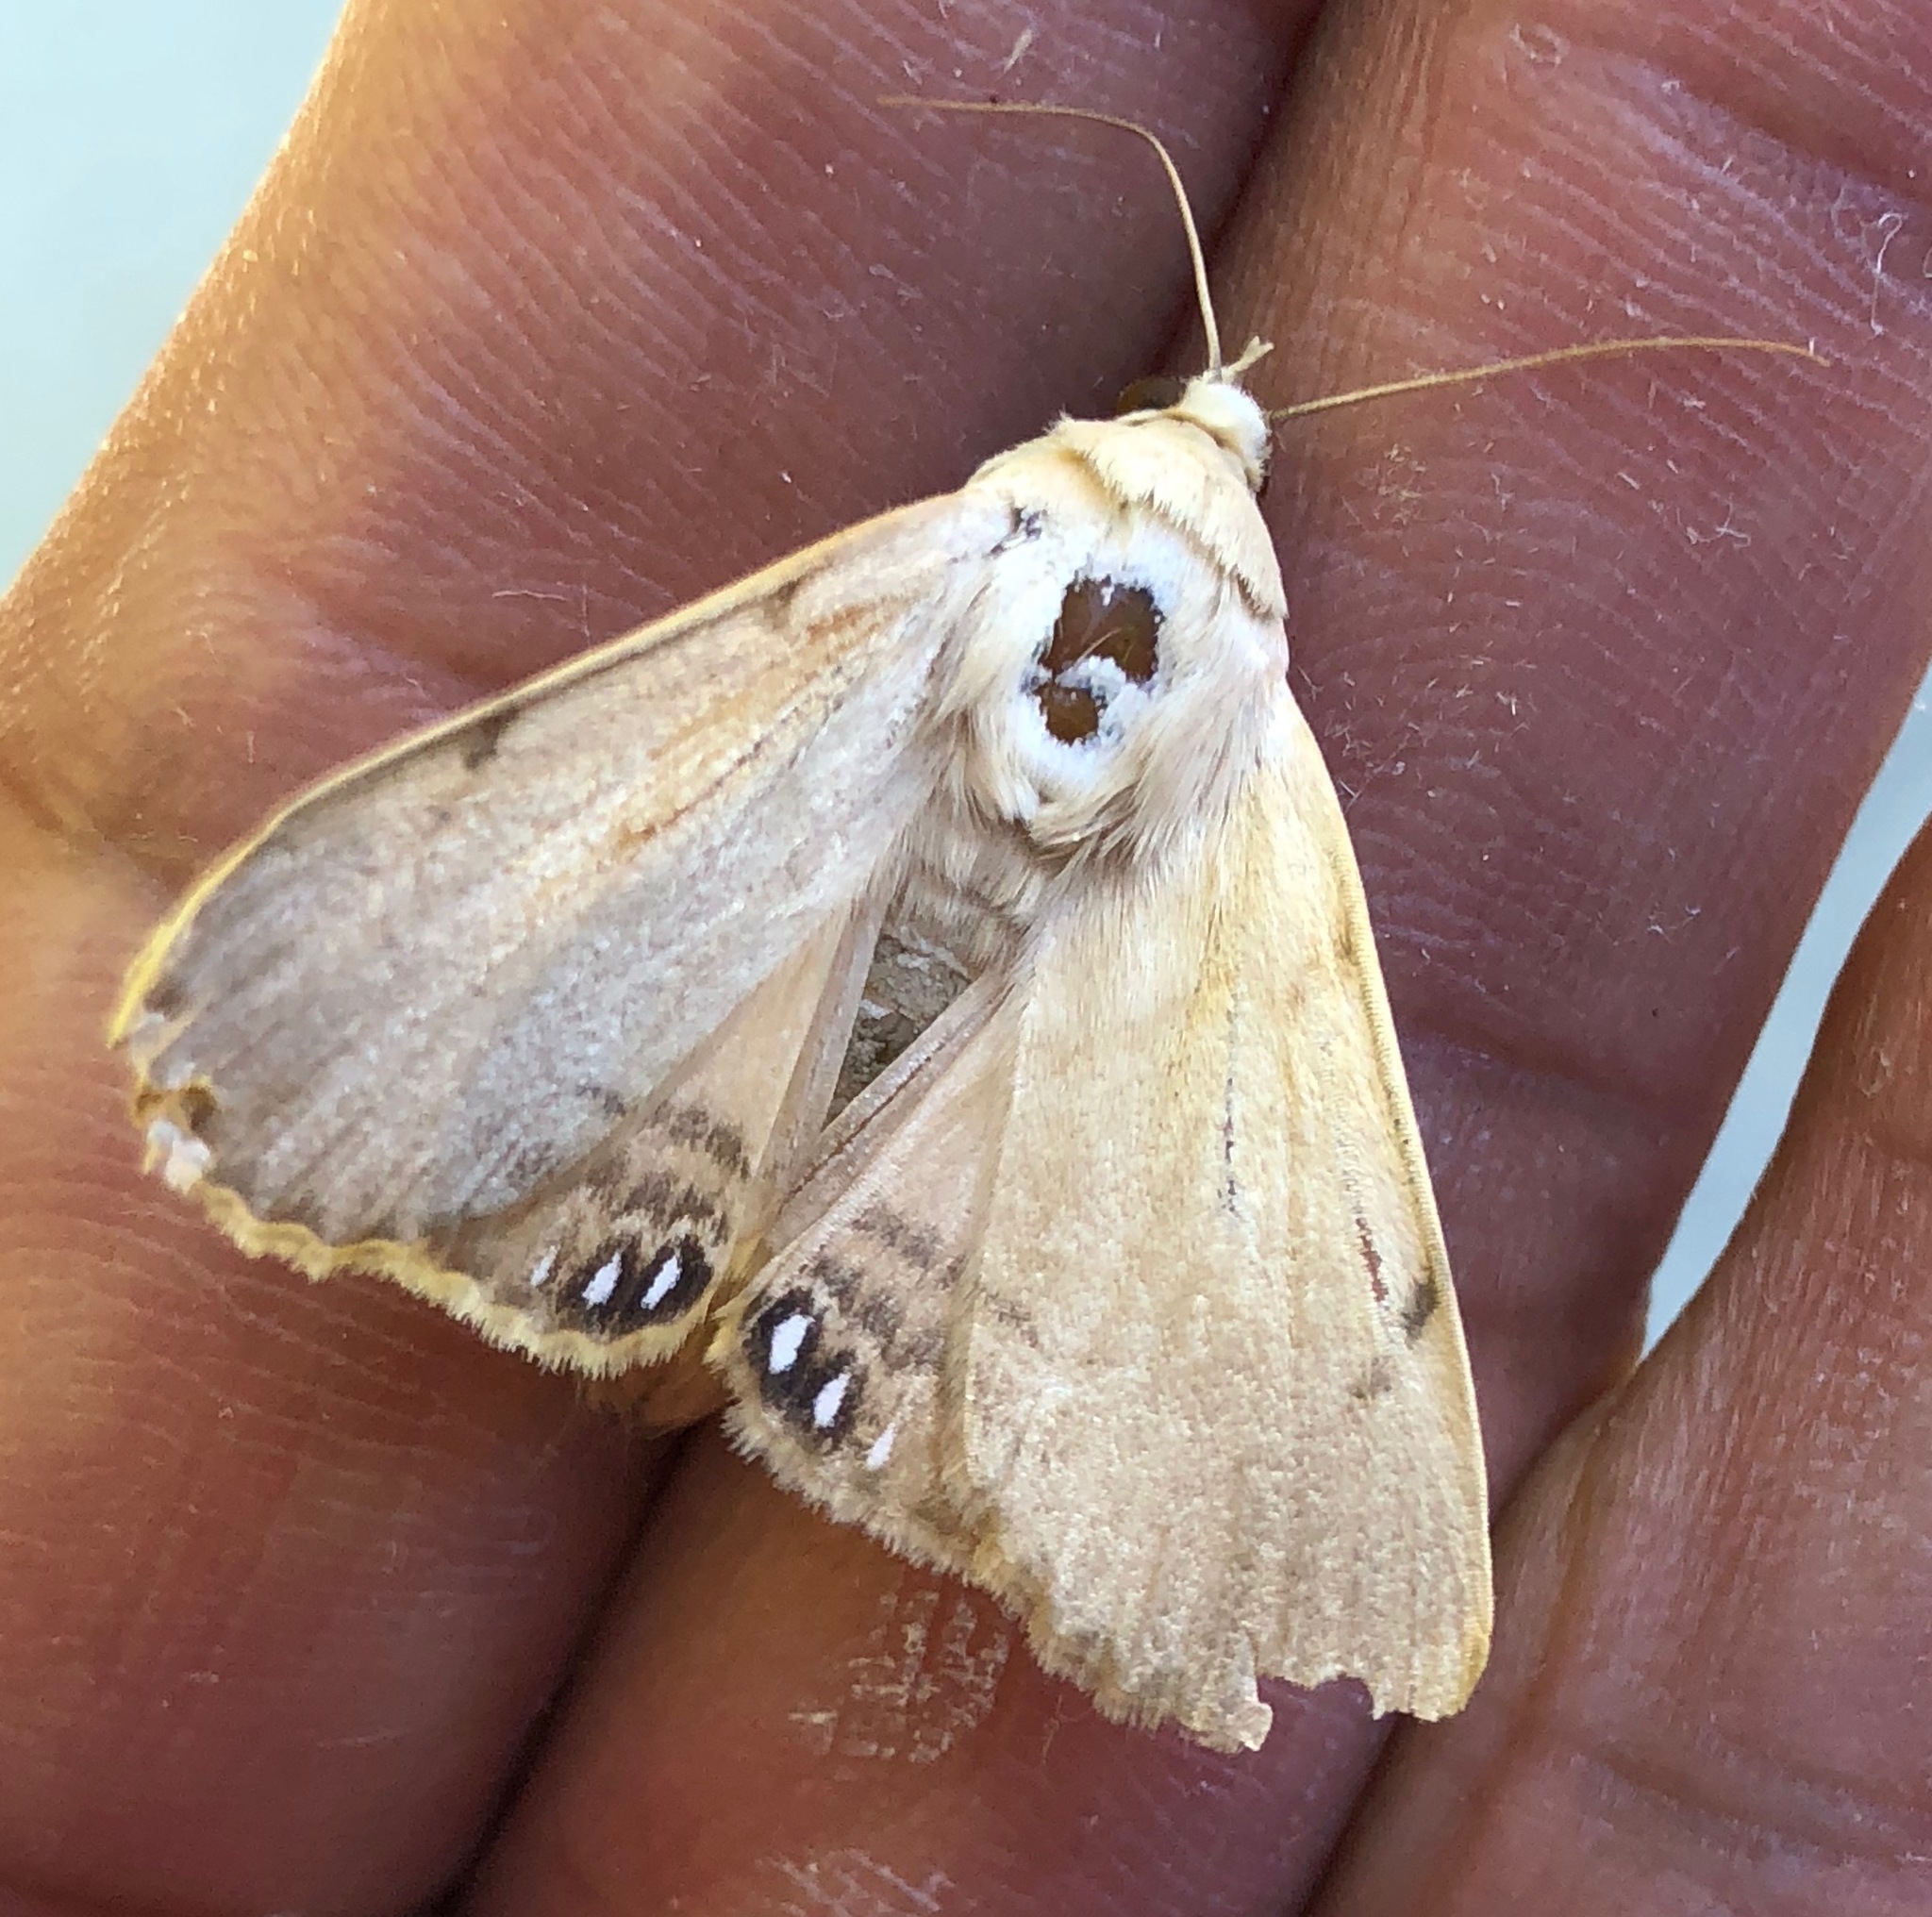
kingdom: Animalia
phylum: Arthropoda
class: Insecta
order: Lepidoptera
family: Erebidae
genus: Litoprosopus
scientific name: Litoprosopus coachella
